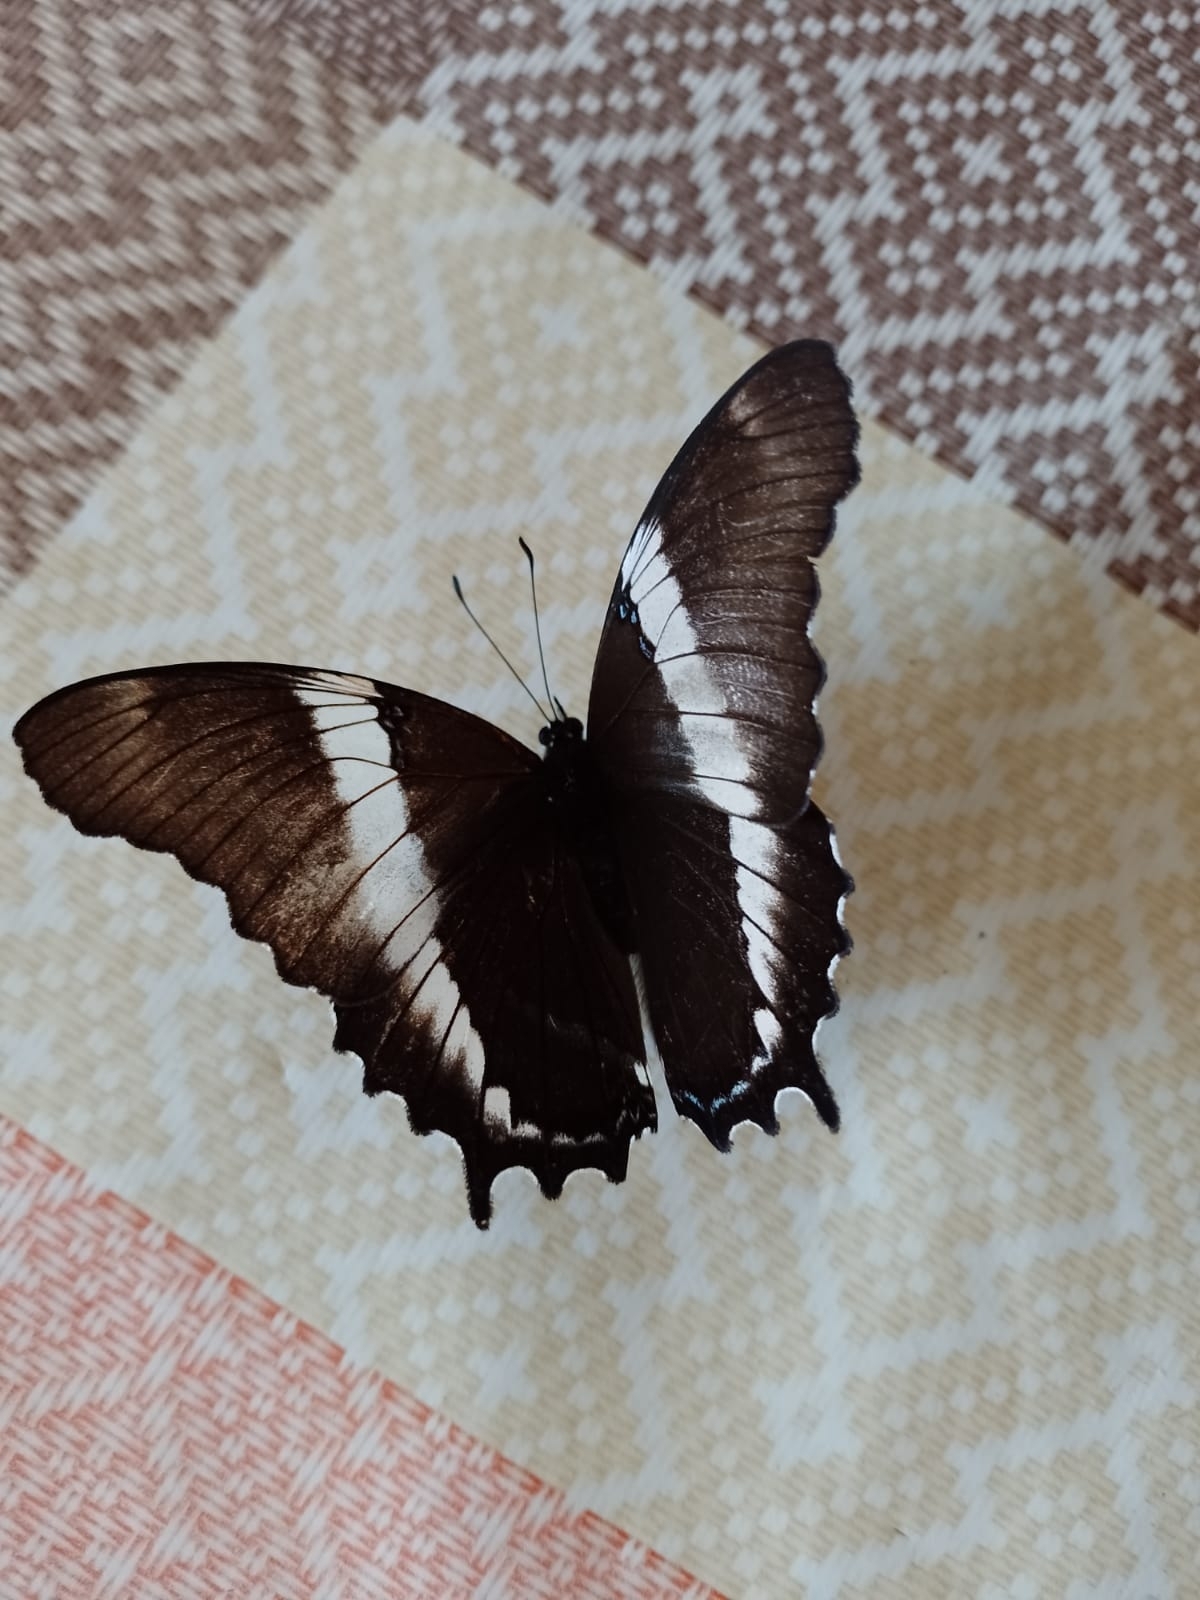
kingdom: Animalia
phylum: Arthropoda
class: Insecta
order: Lepidoptera
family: Nymphalidae
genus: Siproeta
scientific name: Siproeta epaphus
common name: Rusty-tipped page
